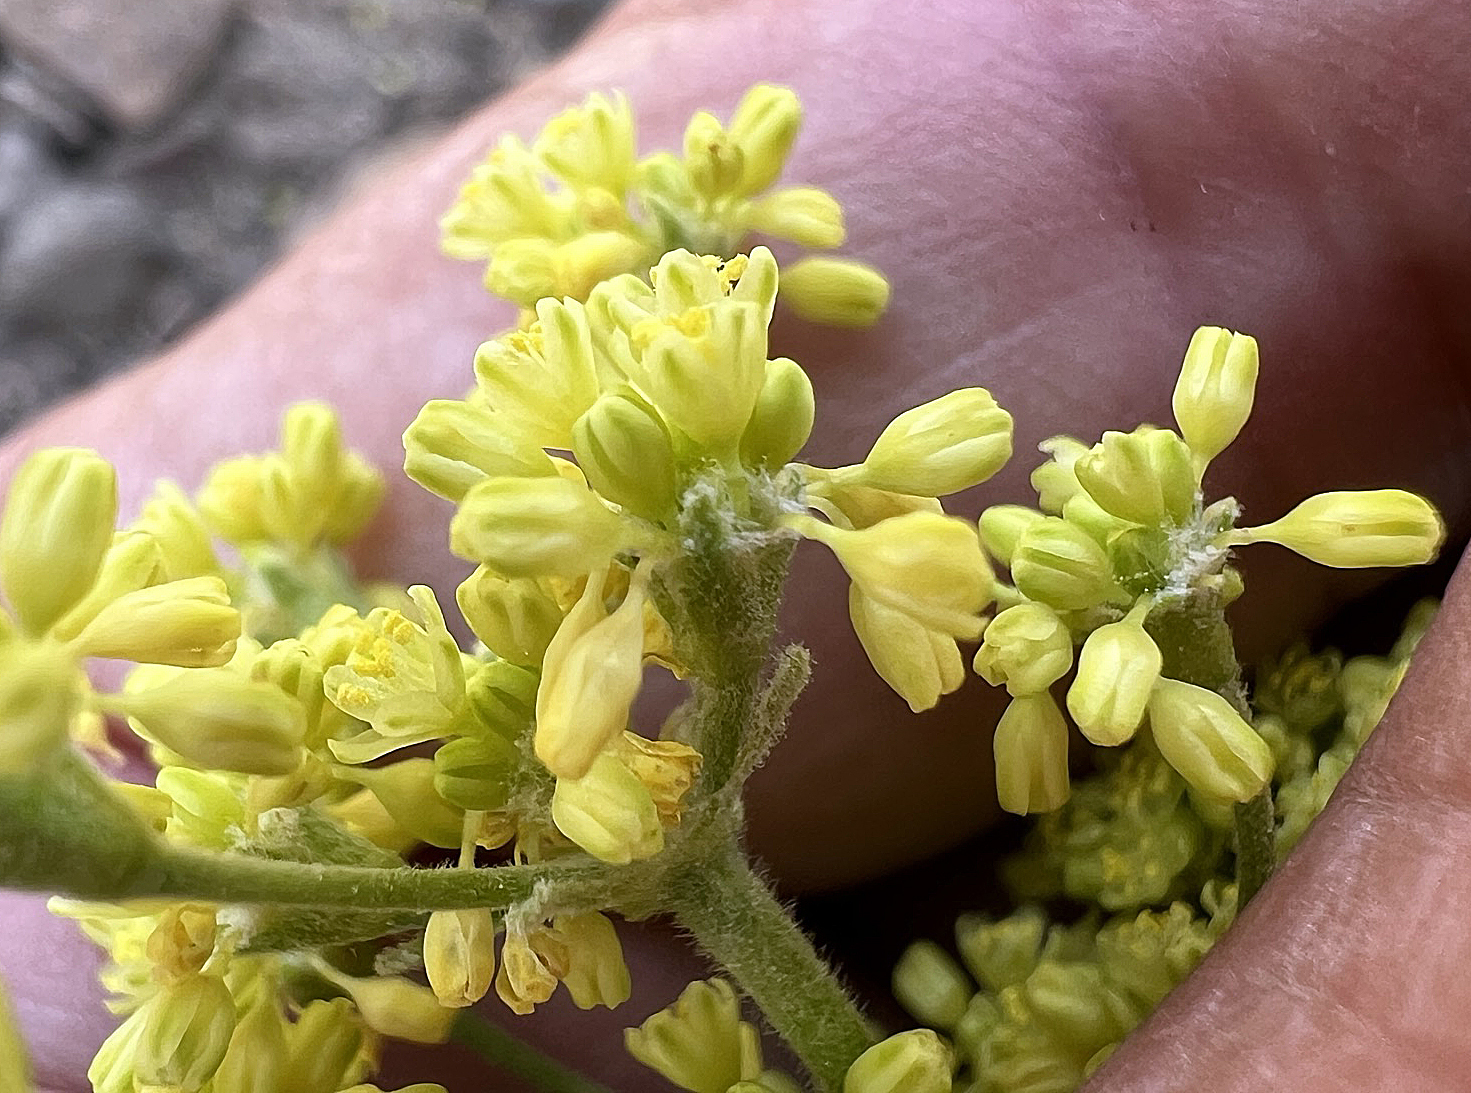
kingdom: Plantae
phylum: Tracheophyta
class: Magnoliopsida
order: Caryophyllales
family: Polygonaceae
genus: Eriogonum
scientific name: Eriogonum marifolium
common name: Marum-leaf wild buckwheat
